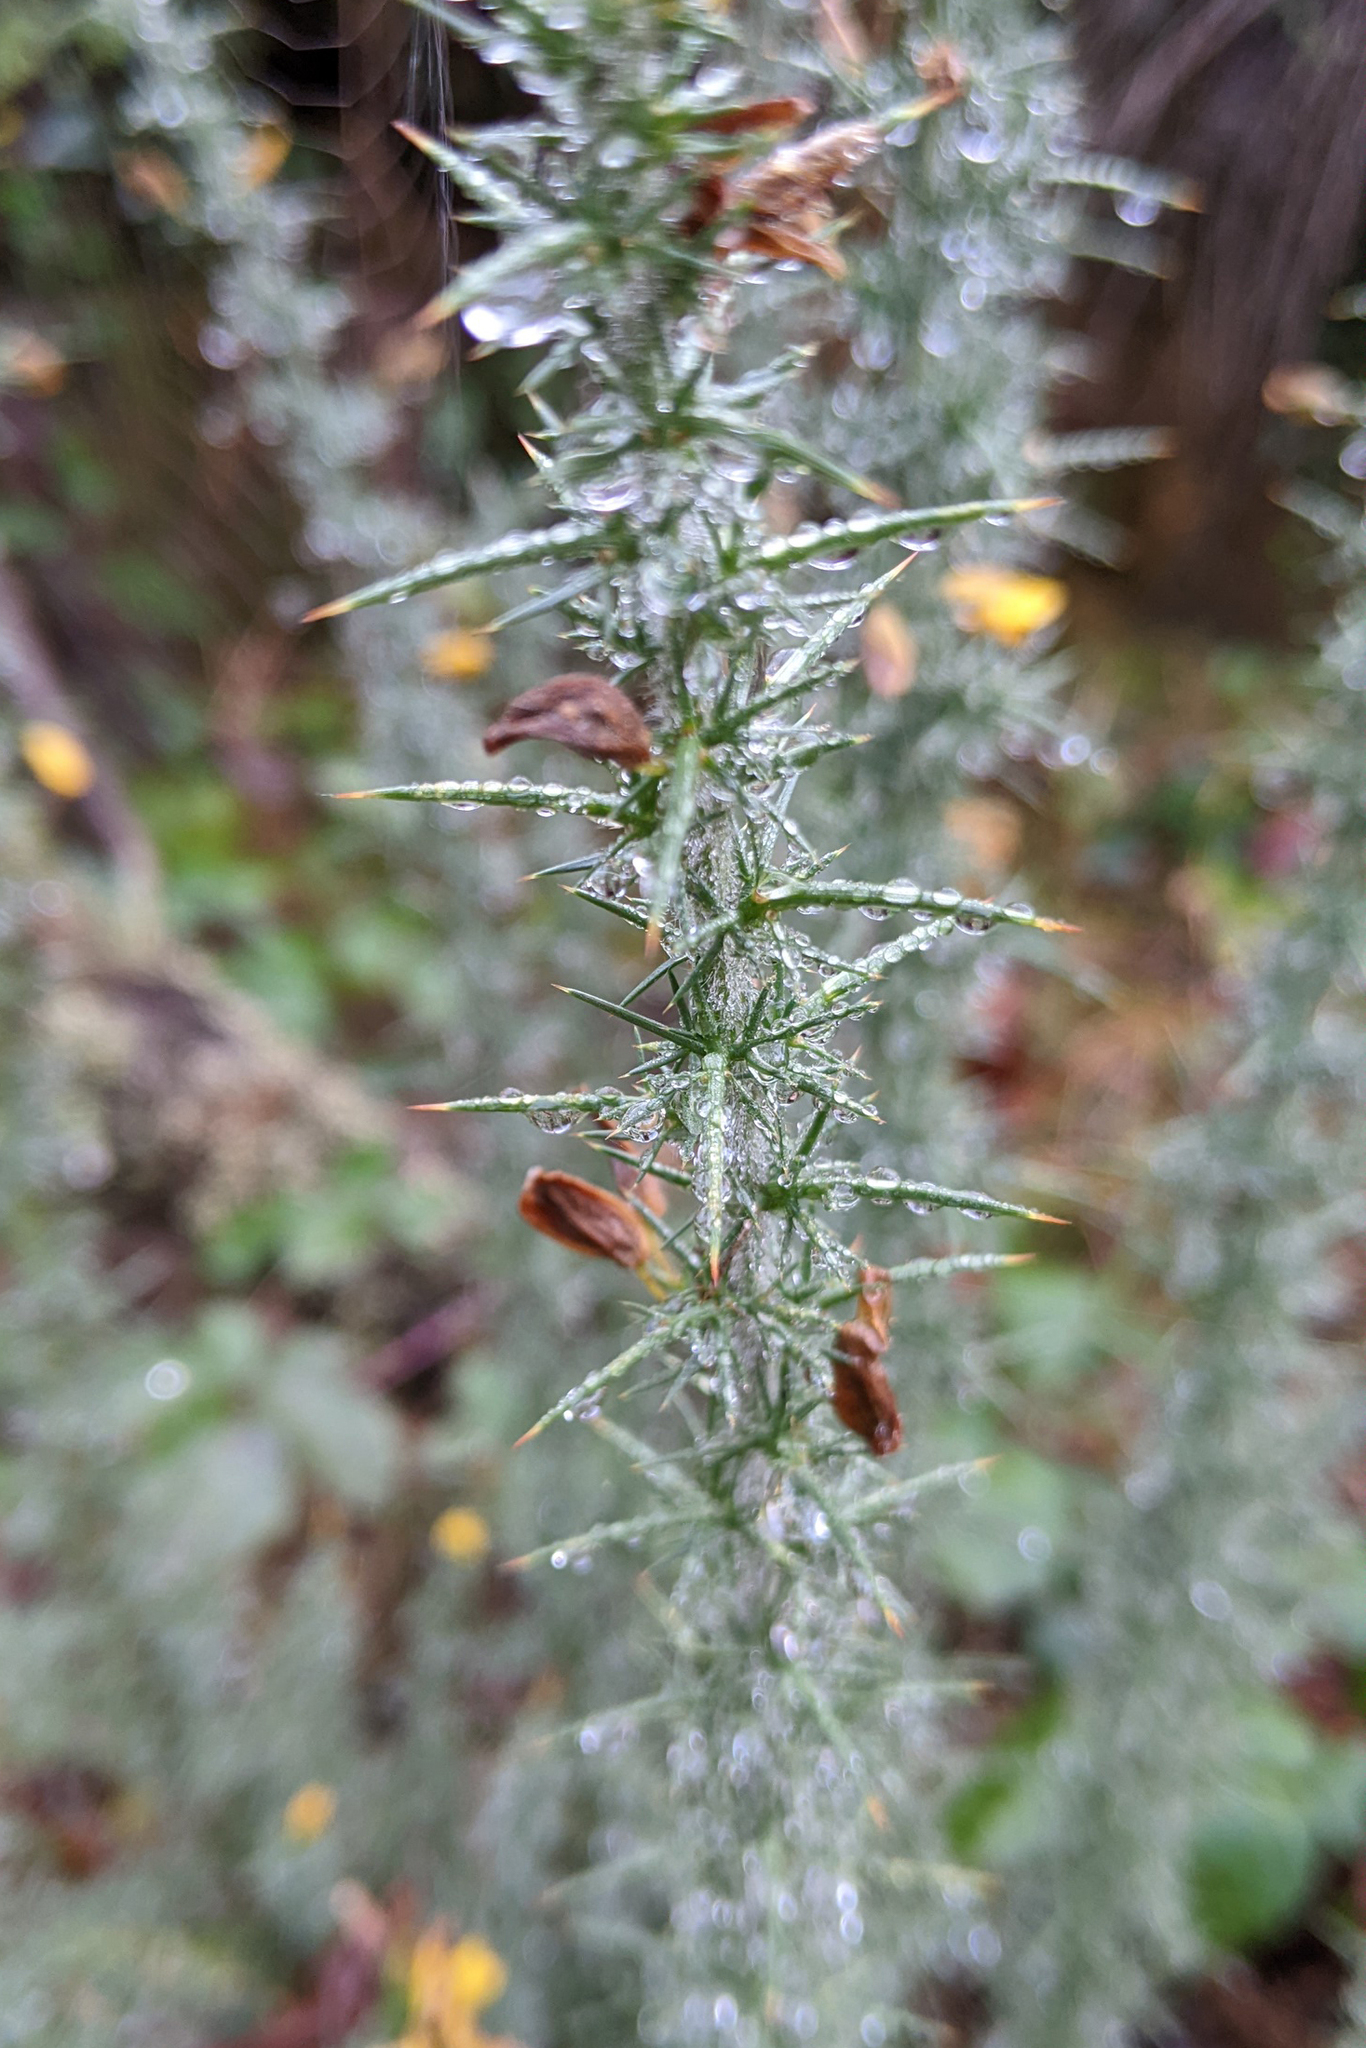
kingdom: Plantae
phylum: Tracheophyta
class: Magnoliopsida
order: Fabales
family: Fabaceae
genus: Ulex
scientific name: Ulex minor
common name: Dwarf gorse
